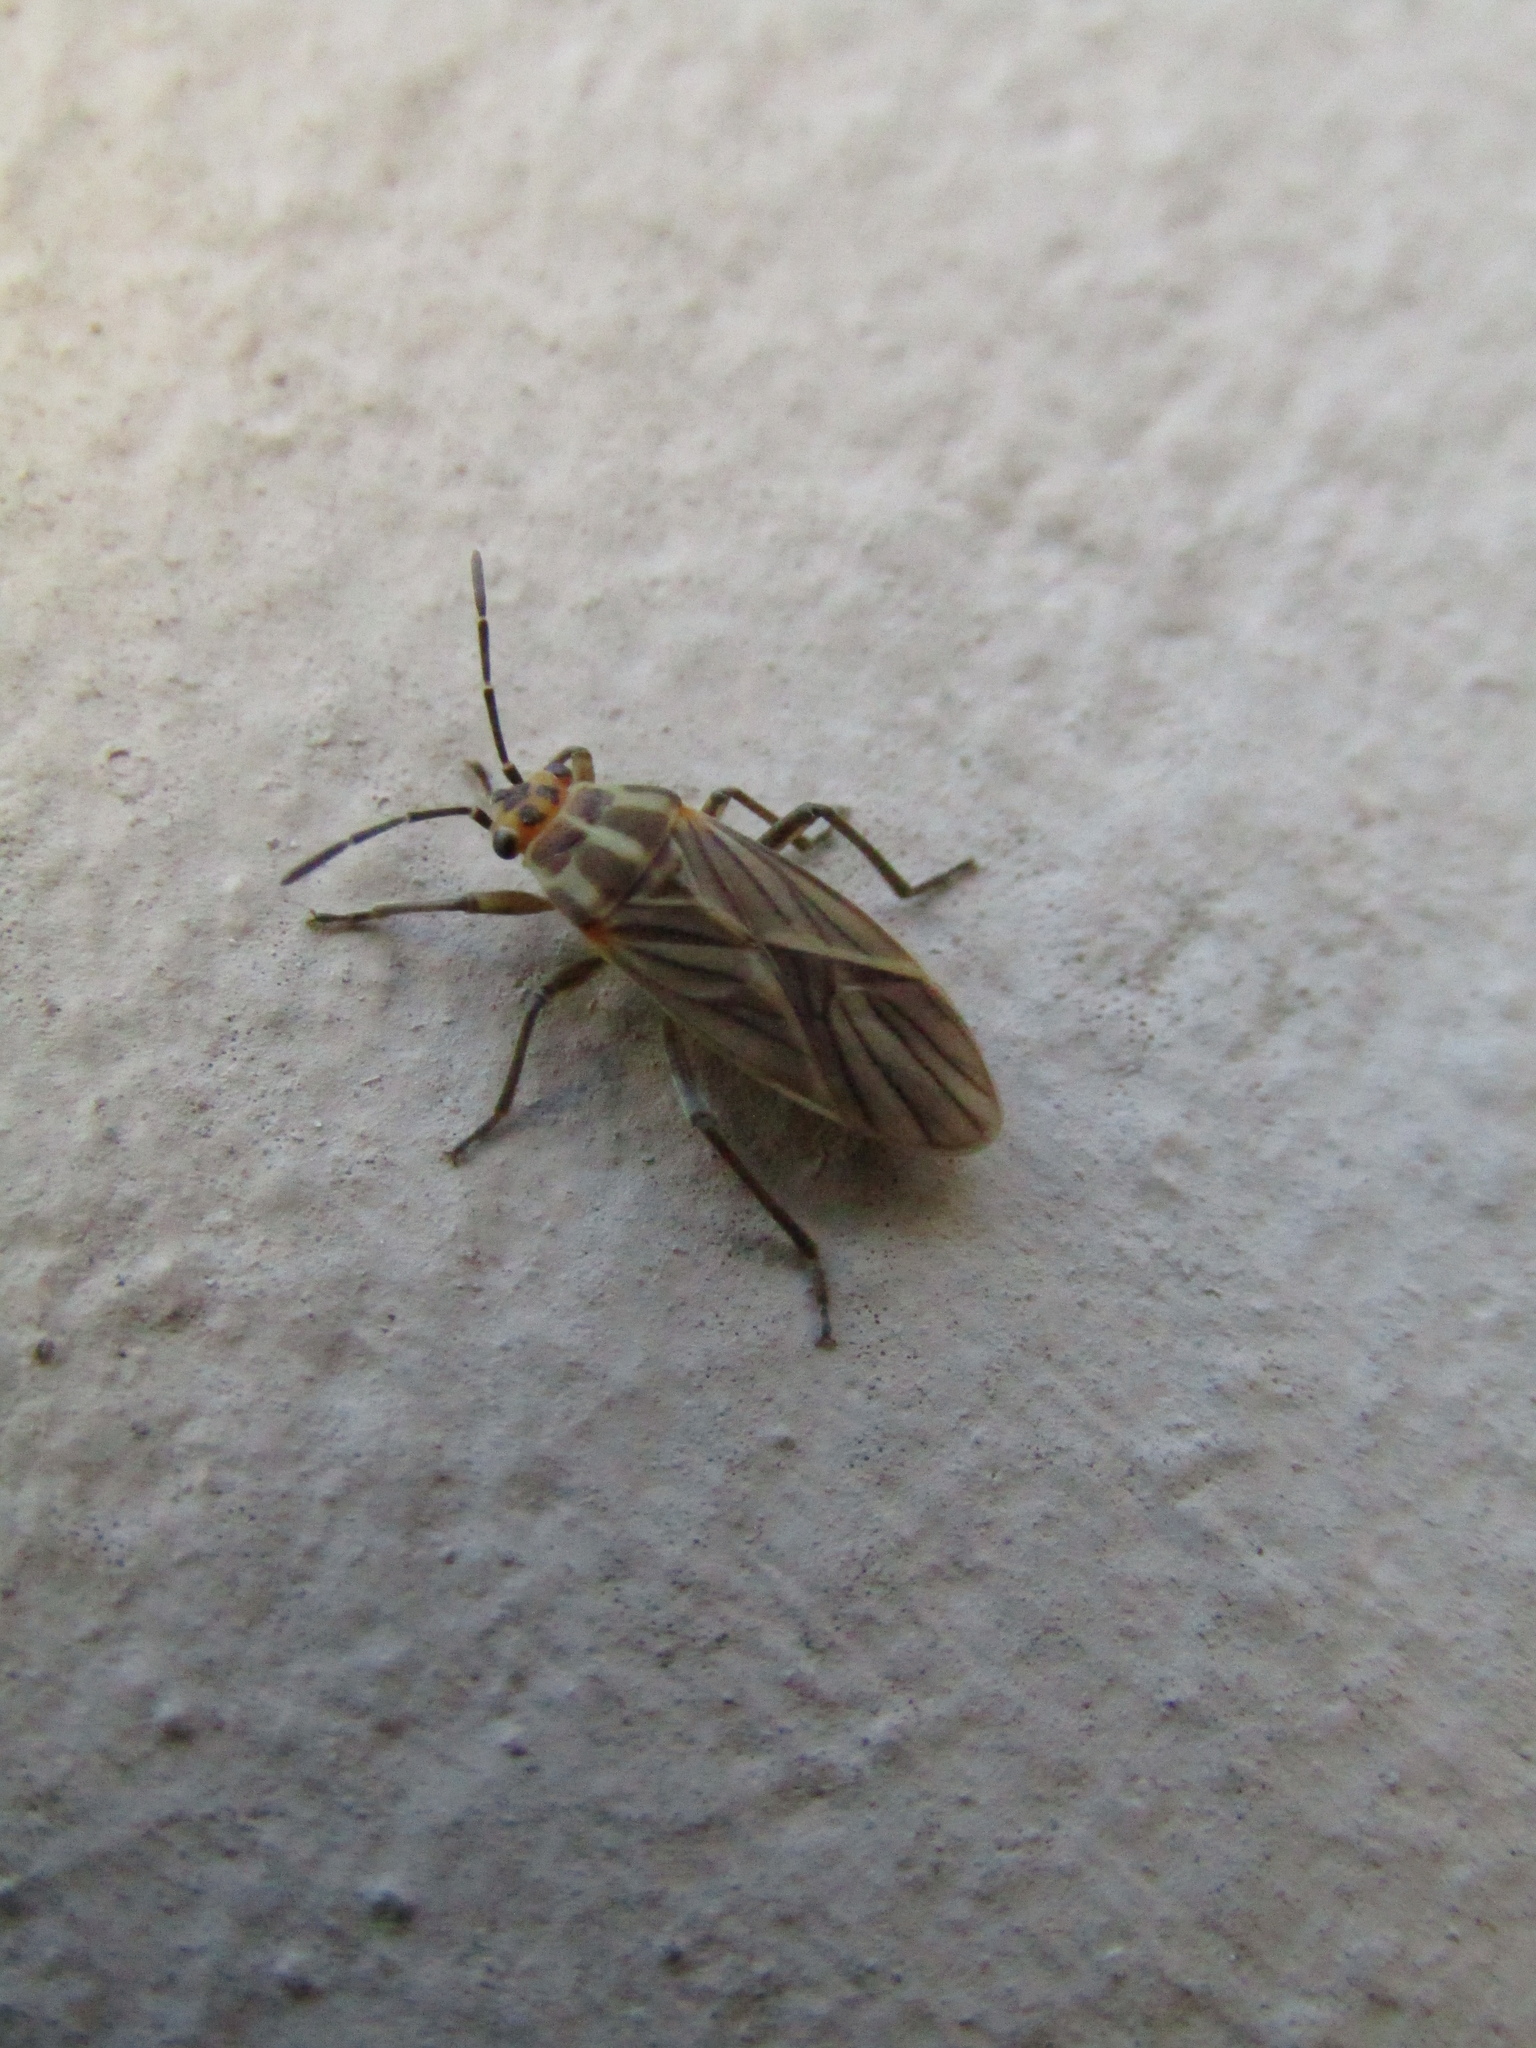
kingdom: Animalia
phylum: Arthropoda
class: Insecta
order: Hemiptera
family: Lygaeidae
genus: Torvochrimnus
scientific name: Torvochrimnus poeyi
